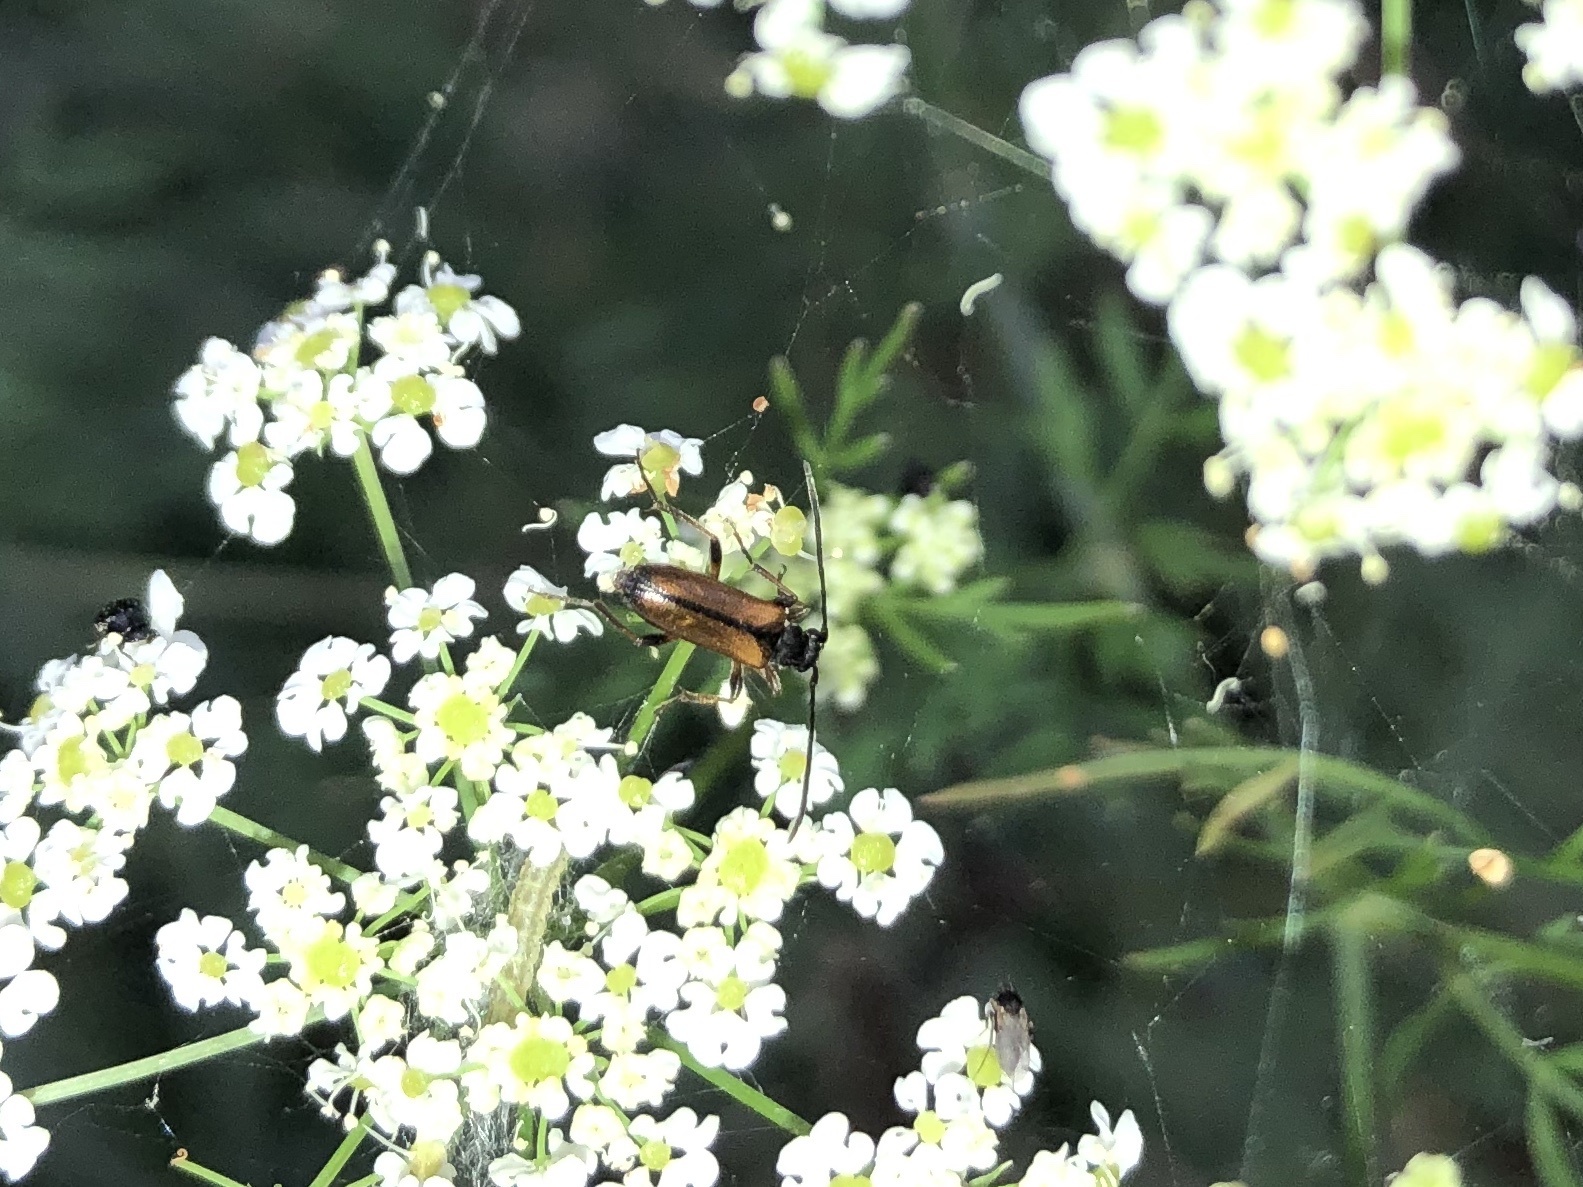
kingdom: Animalia
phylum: Arthropoda
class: Insecta
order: Coleoptera
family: Cerambycidae
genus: Alosterna
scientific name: Alosterna tabacicolor
